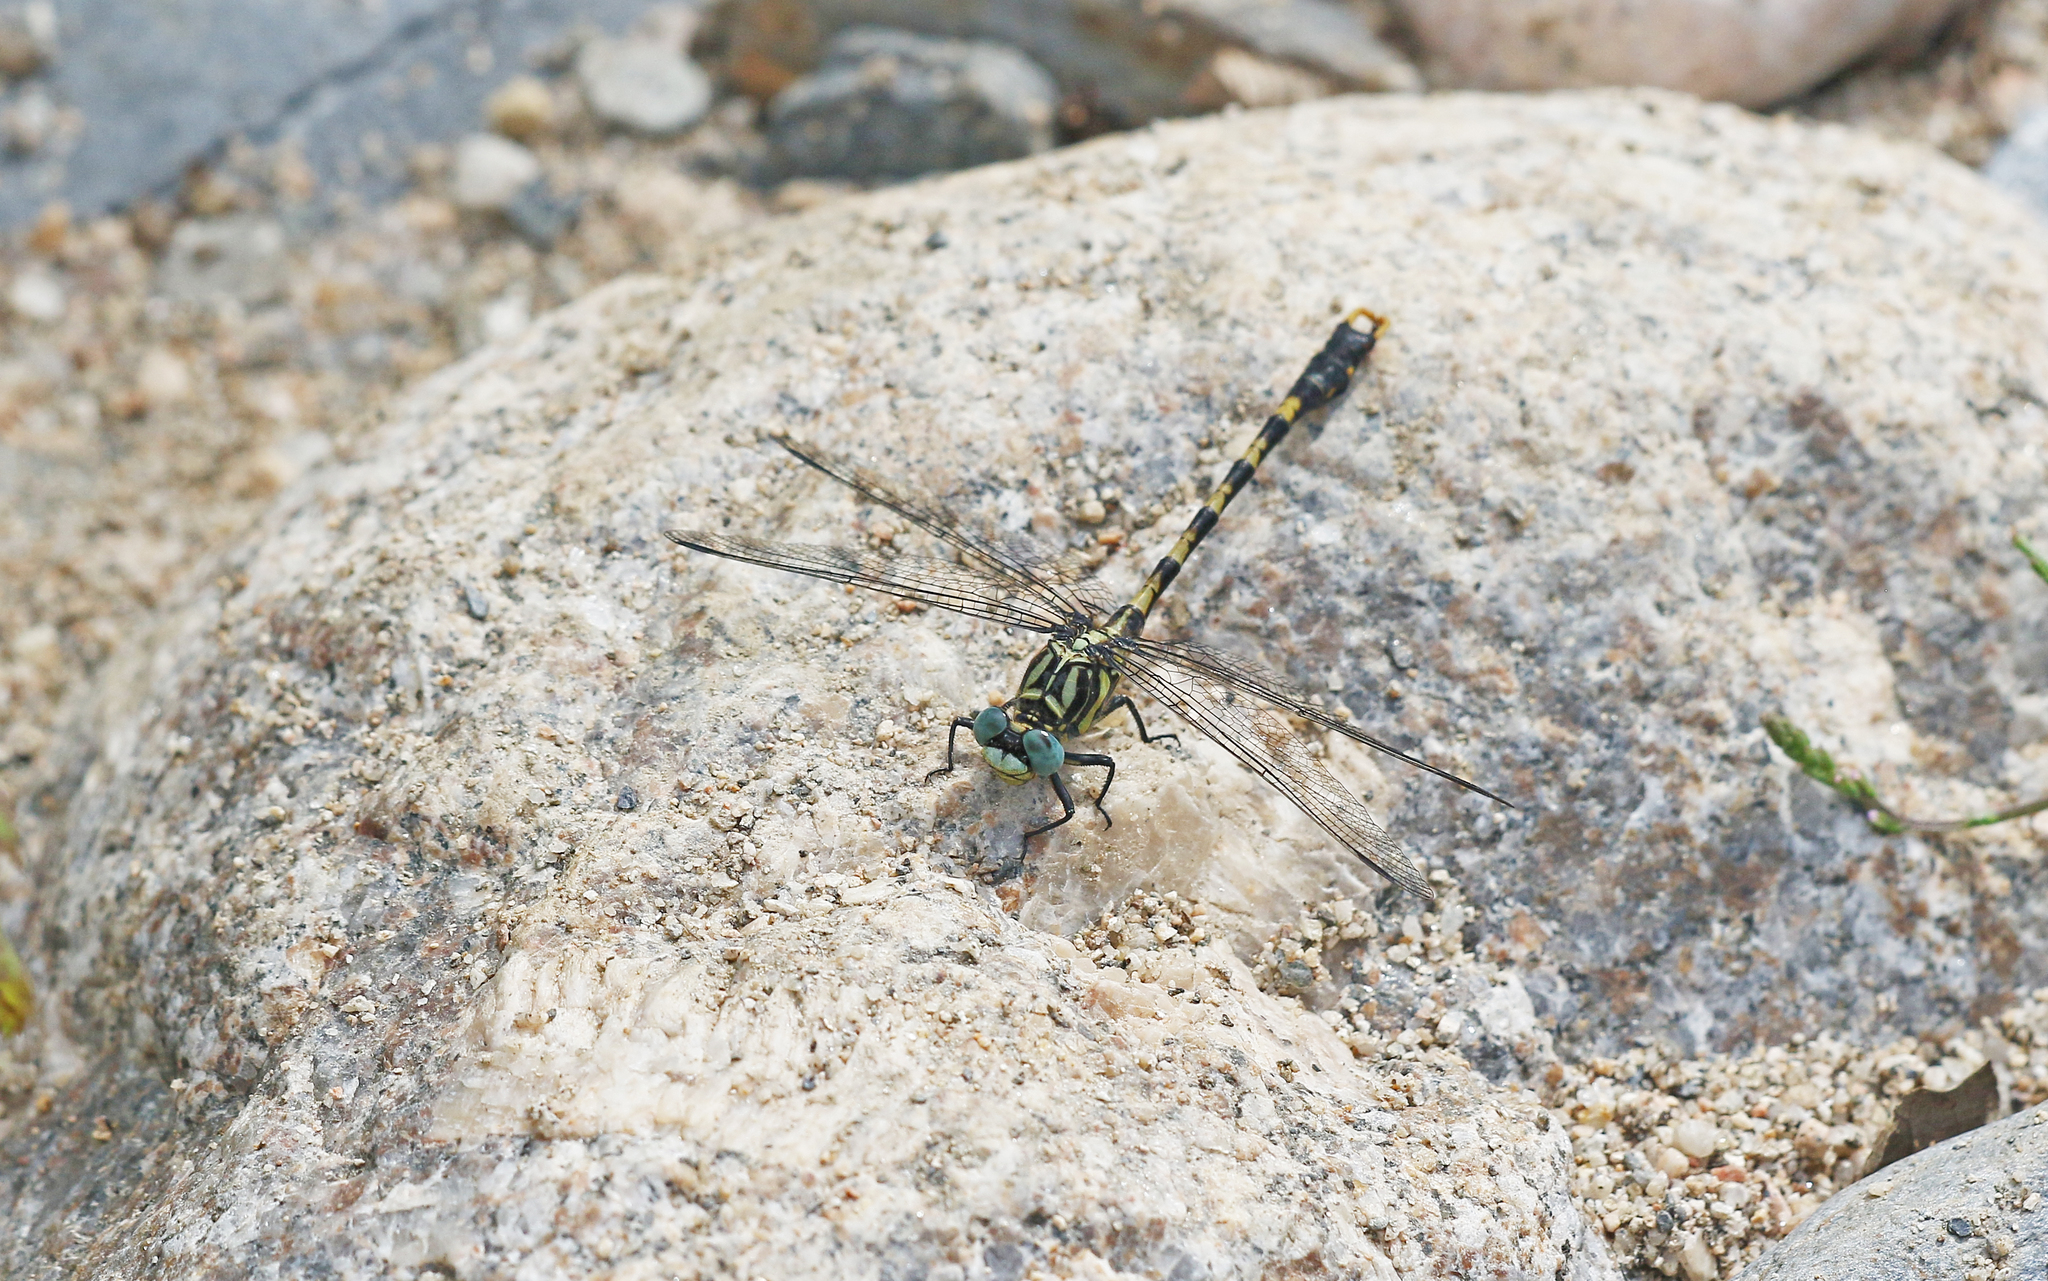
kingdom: Animalia
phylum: Arthropoda
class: Insecta
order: Odonata
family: Gomphidae
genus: Onychogomphus
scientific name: Onychogomphus uncatus
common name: Large pincertail
